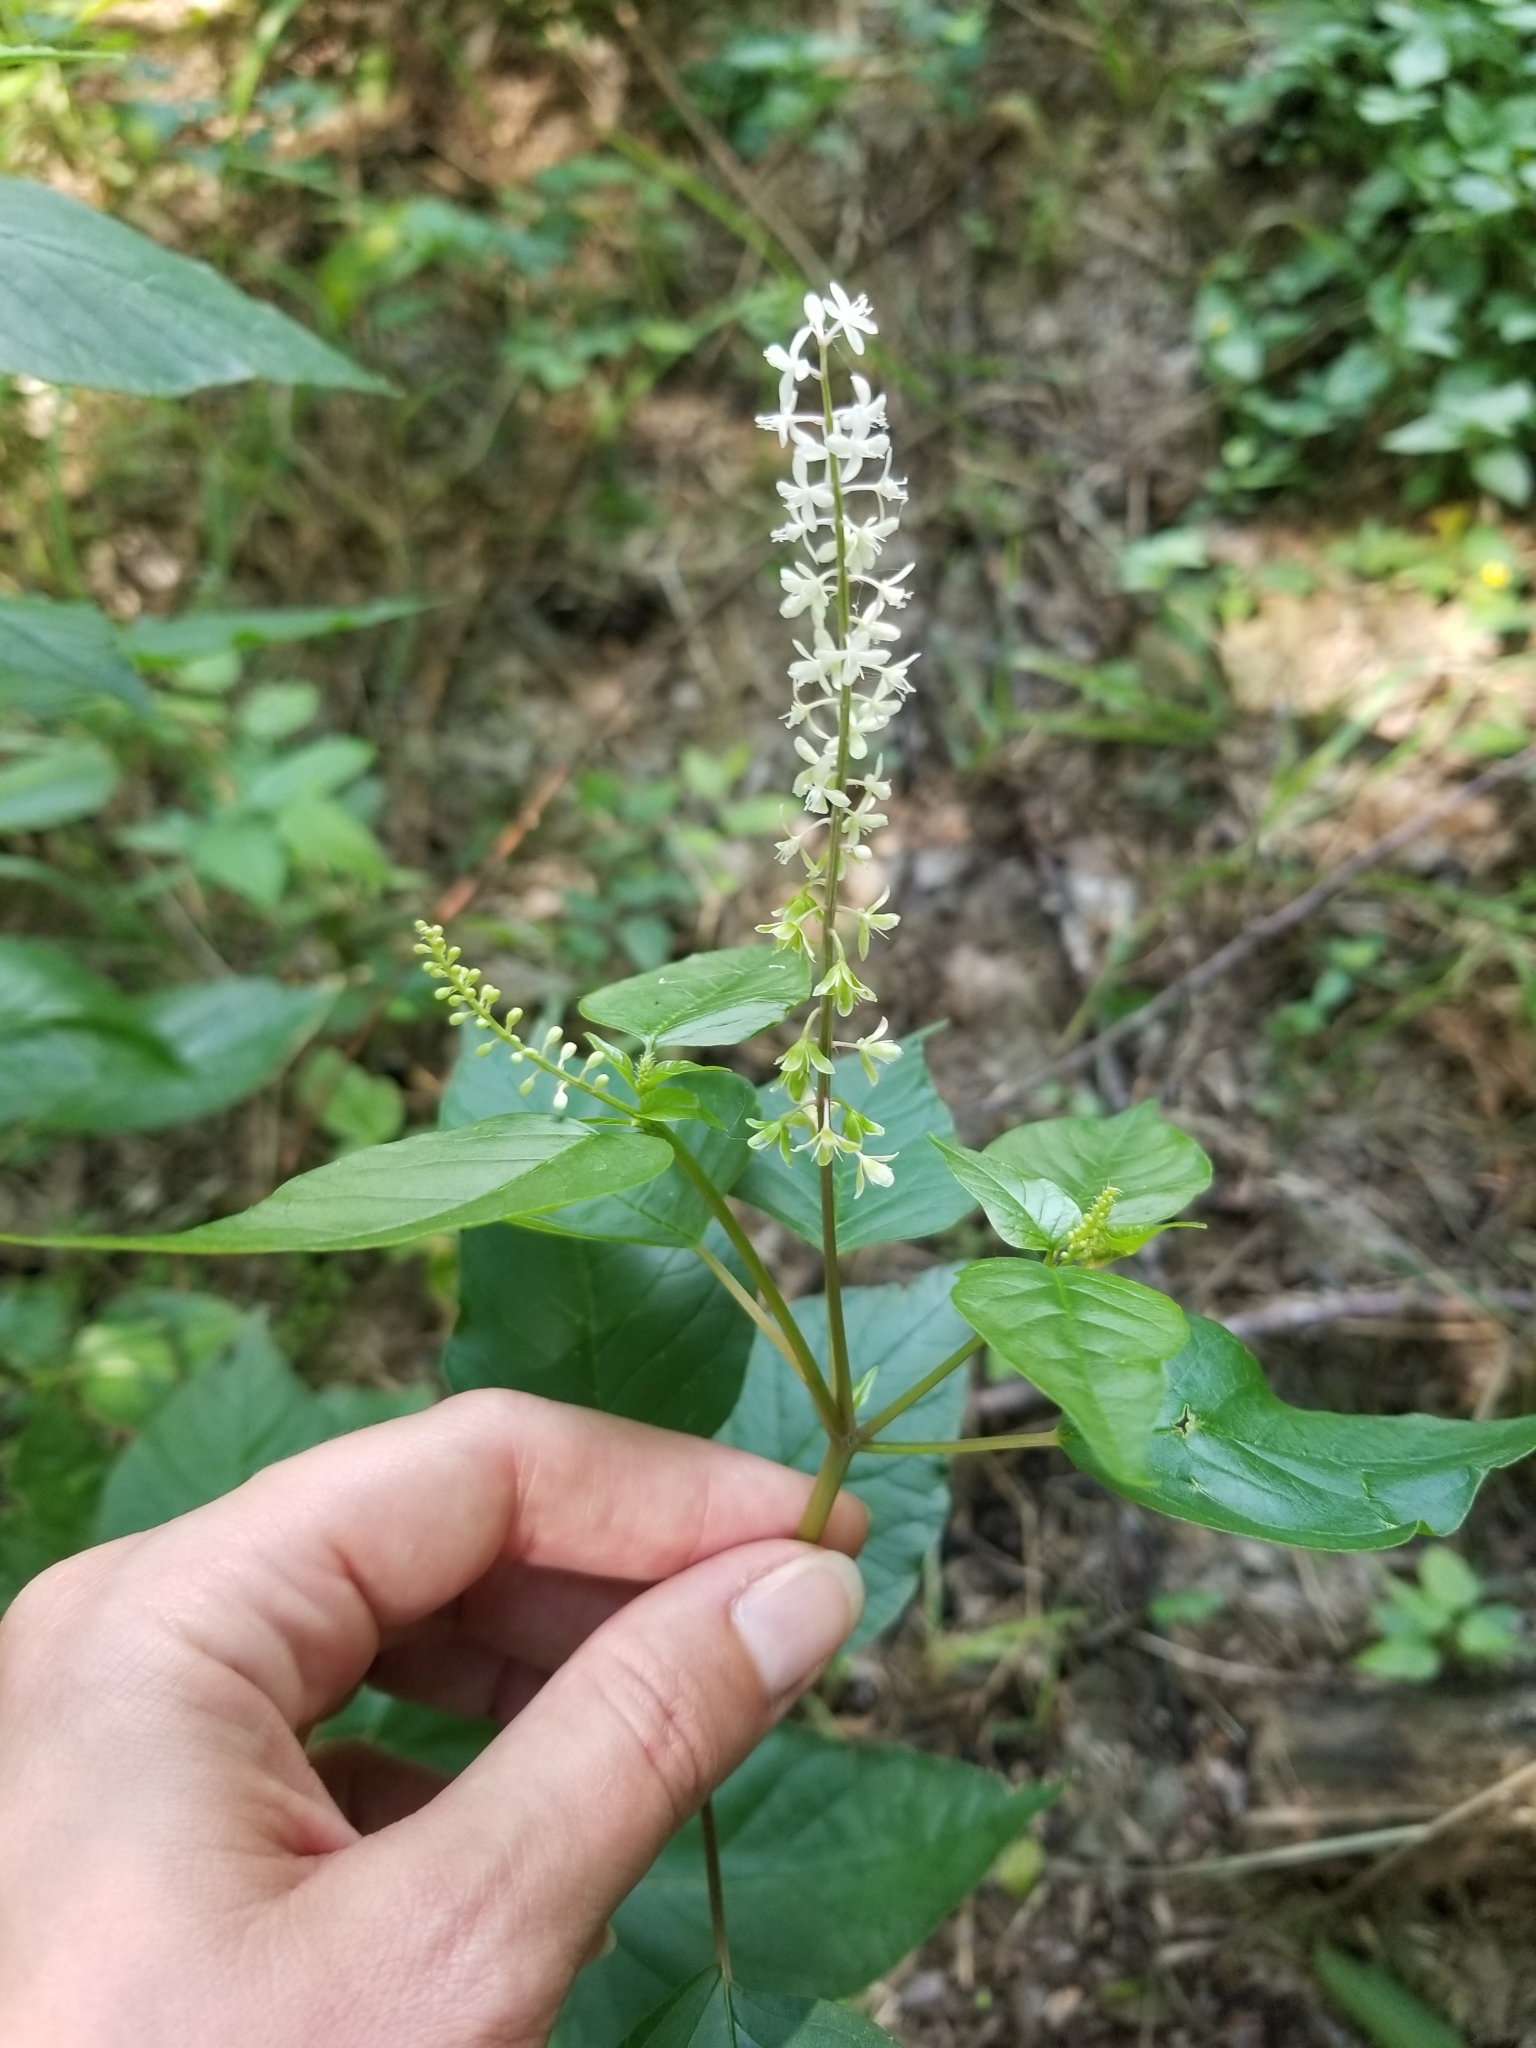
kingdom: Plantae
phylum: Tracheophyta
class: Magnoliopsida
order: Caryophyllales
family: Phytolaccaceae
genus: Rivina
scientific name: Rivina humilis
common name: Rougeplant
